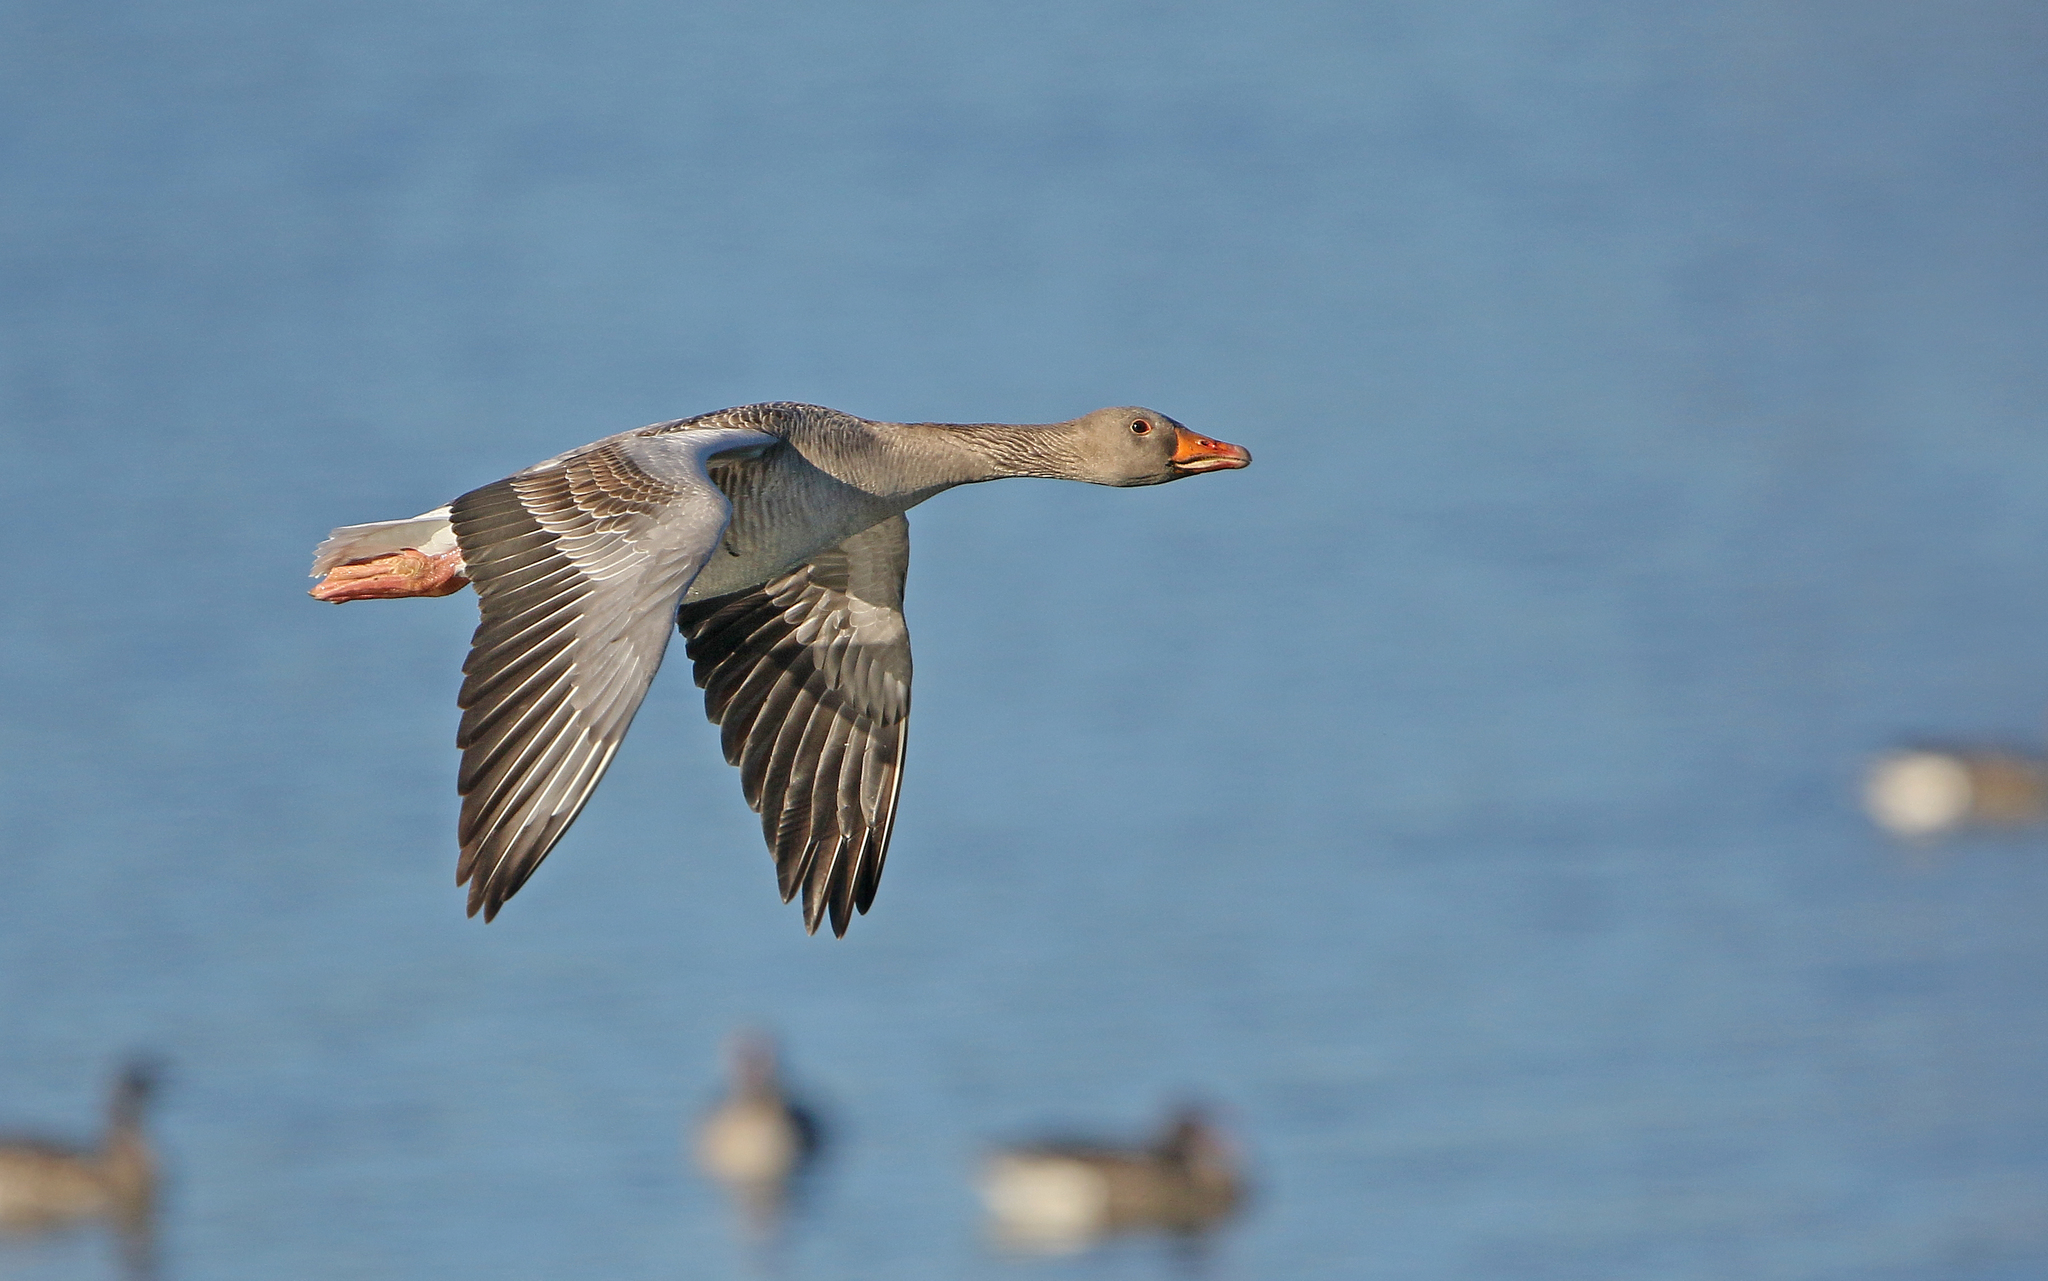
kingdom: Animalia
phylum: Chordata
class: Aves
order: Anseriformes
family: Anatidae
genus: Anser
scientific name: Anser anser
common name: Greylag goose
